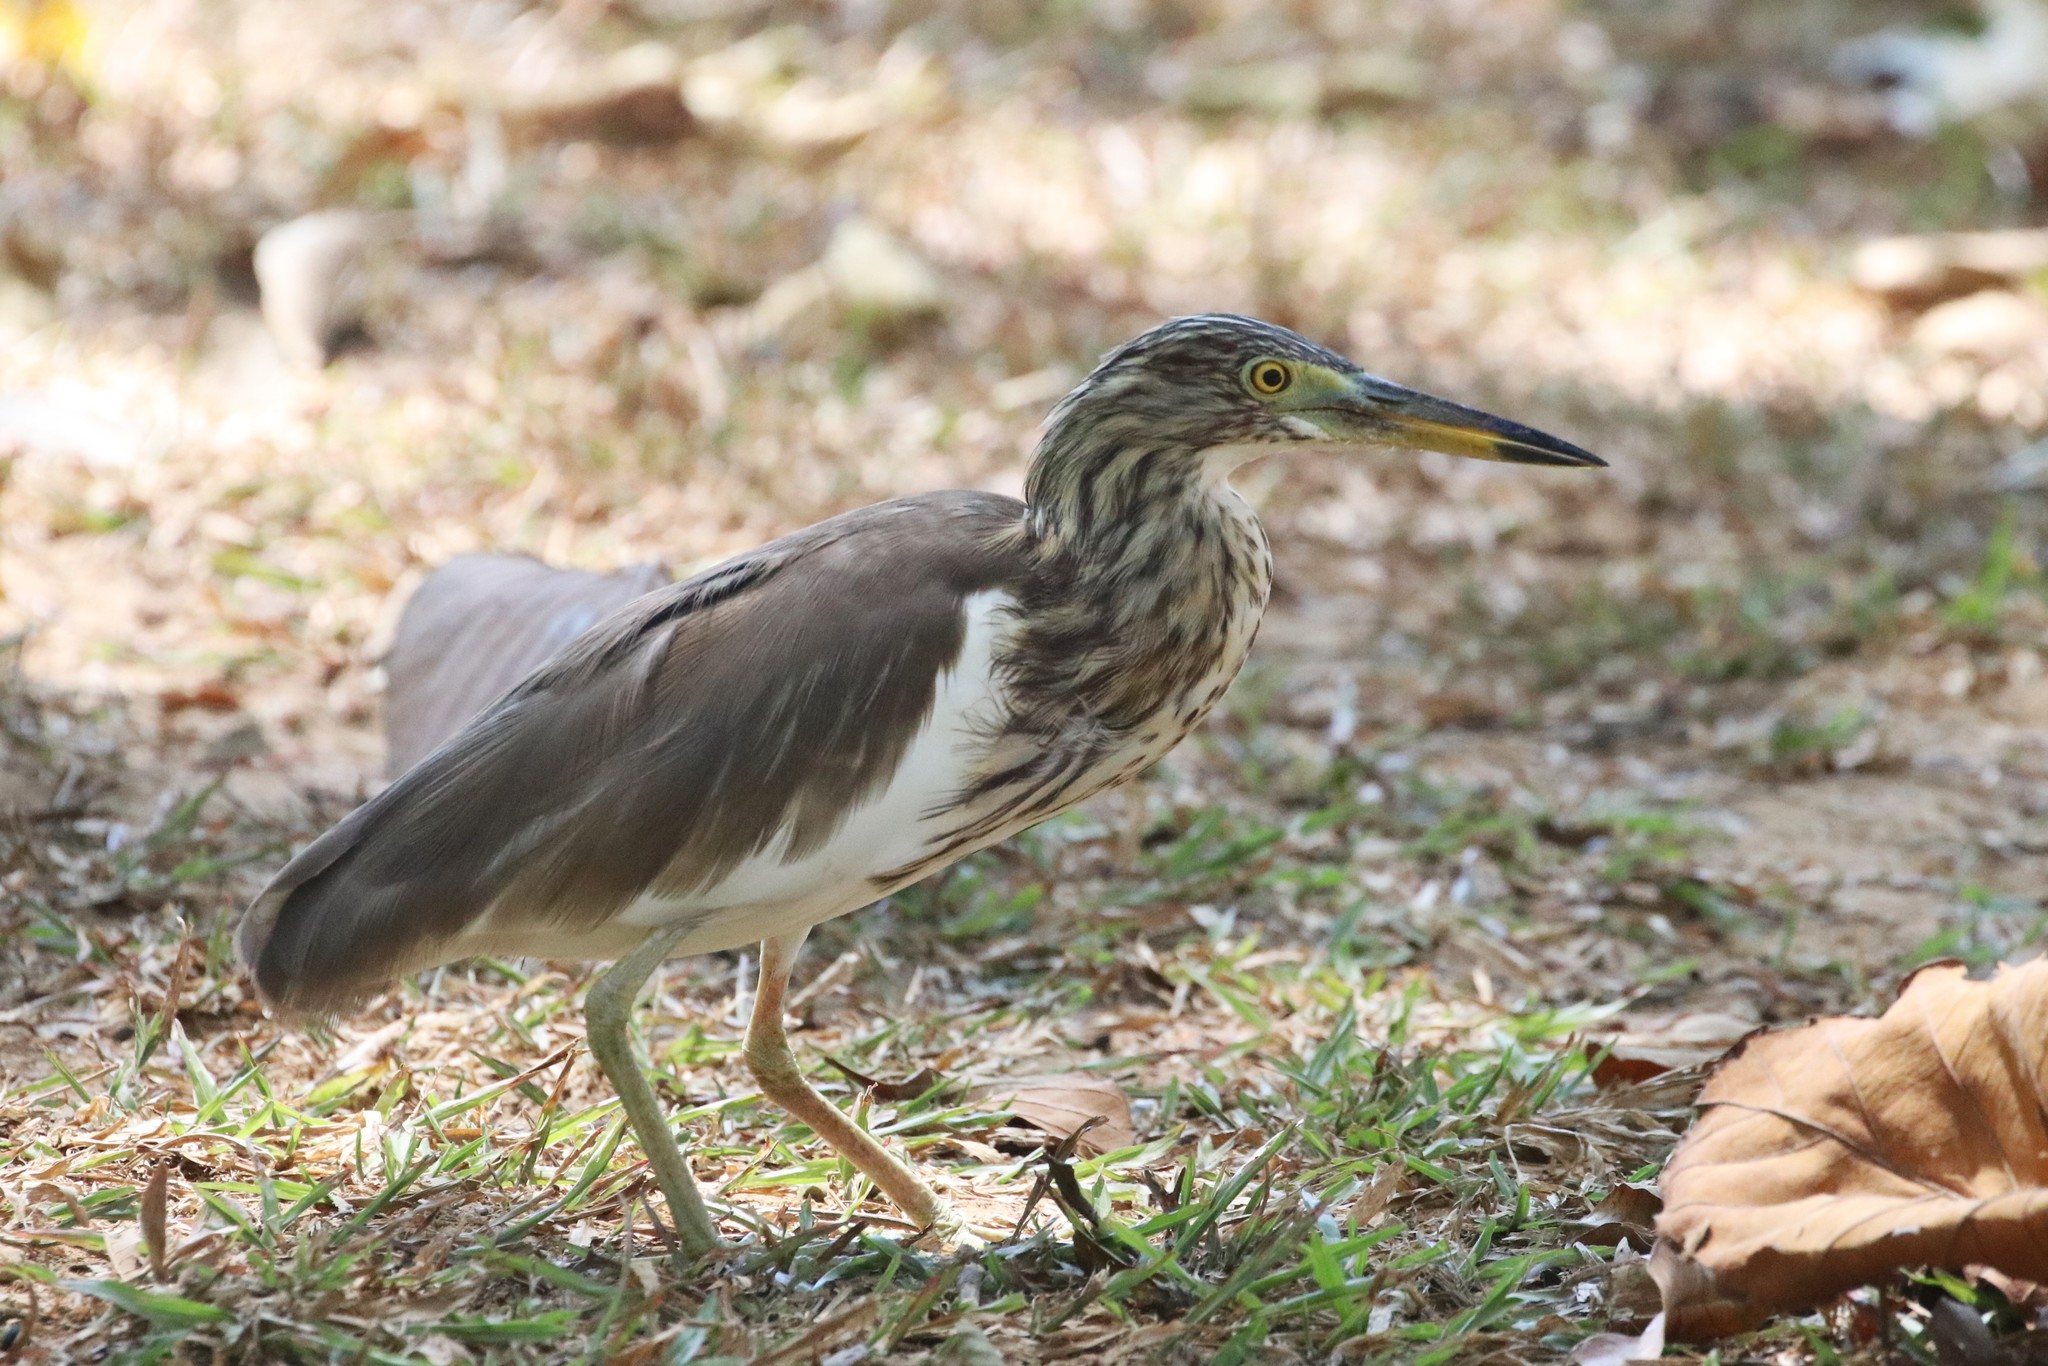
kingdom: Animalia
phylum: Chordata
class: Aves
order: Pelecaniformes
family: Ardeidae
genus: Ardeola
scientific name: Ardeola
